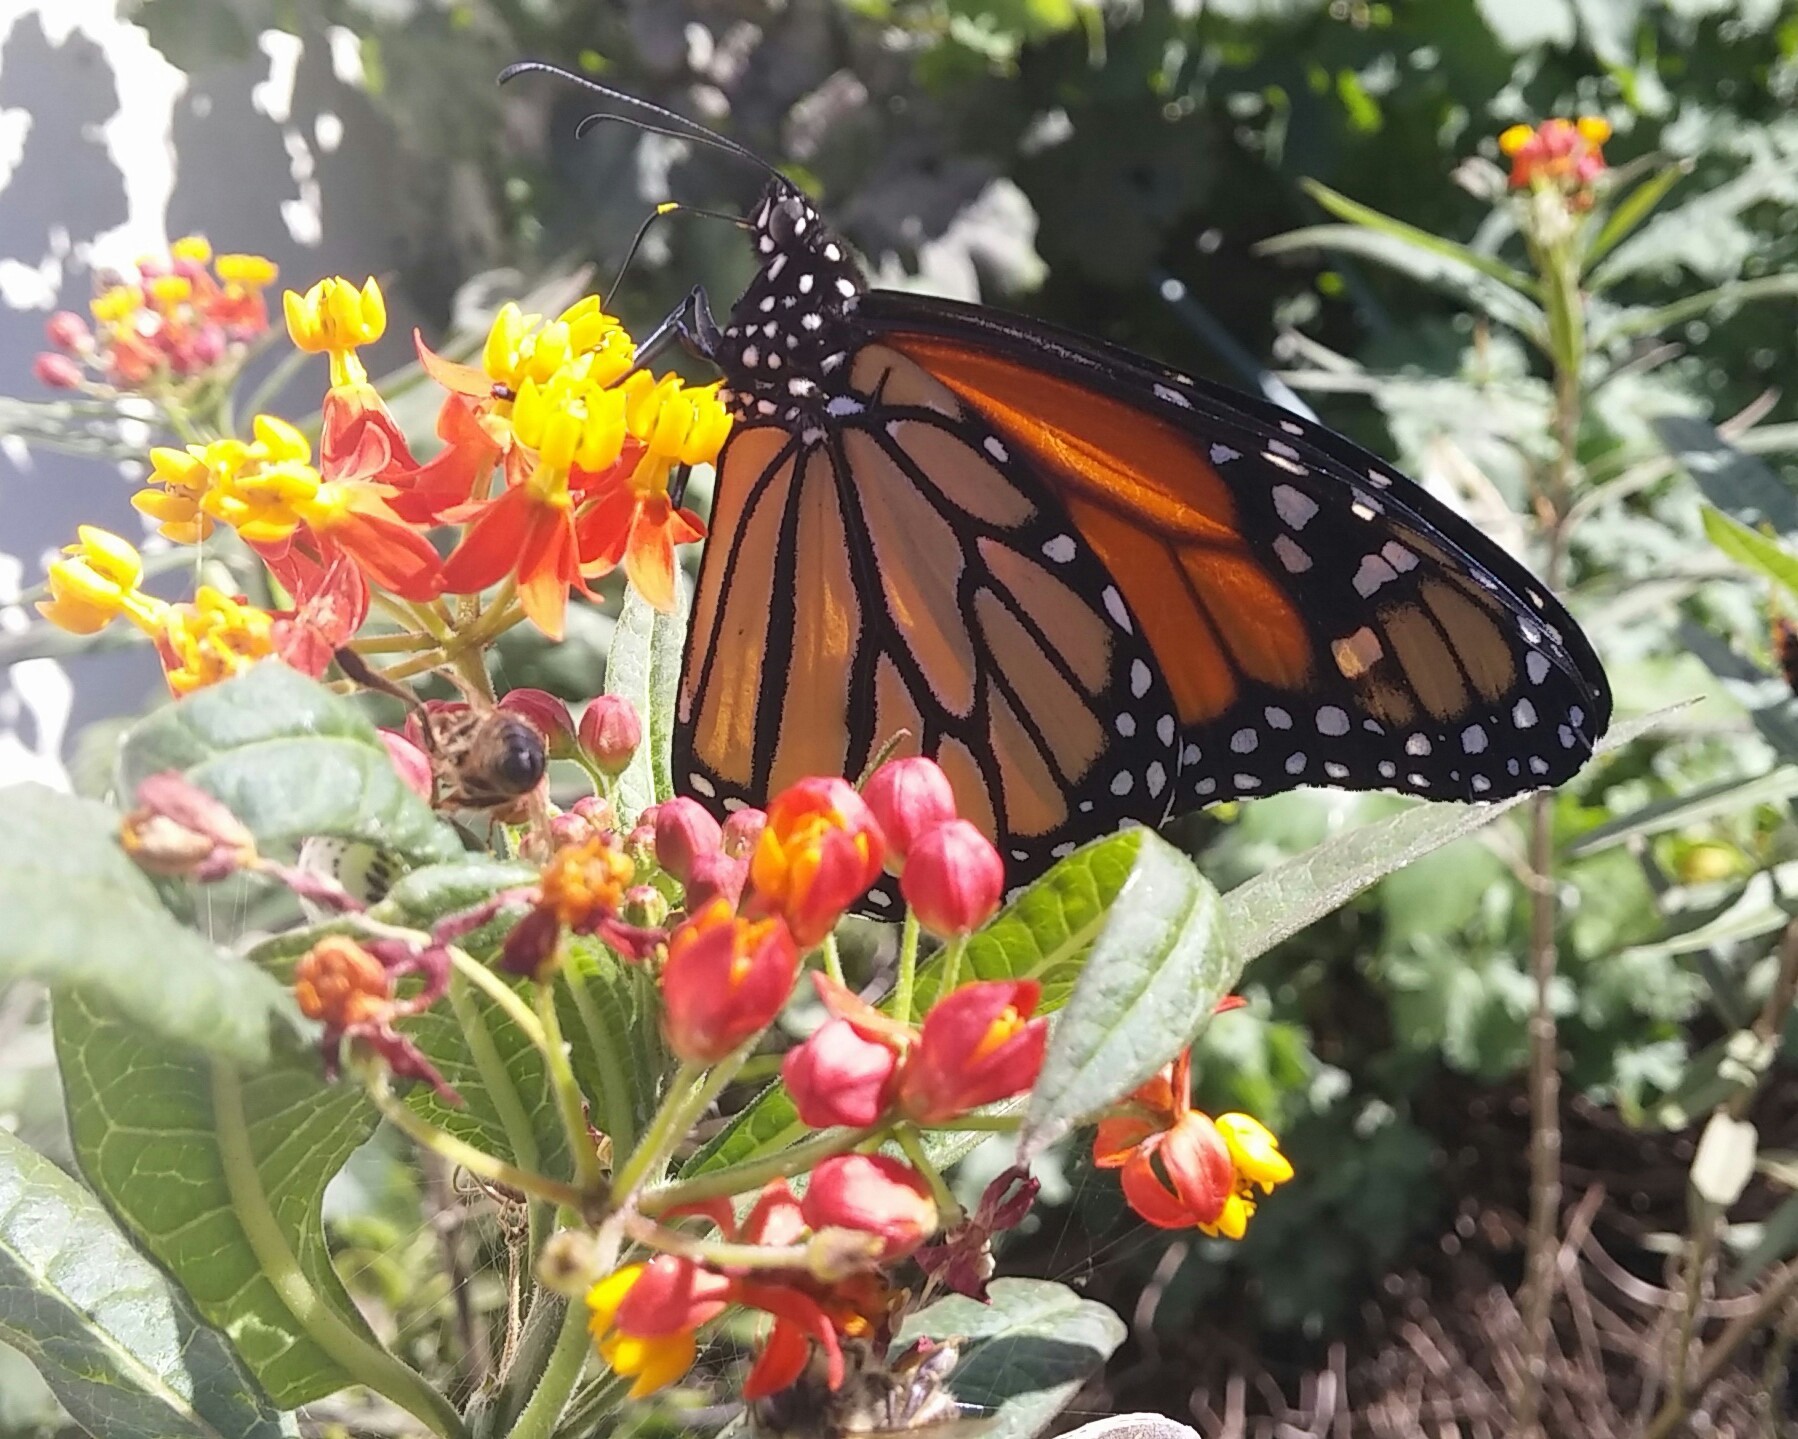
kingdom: Animalia
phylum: Arthropoda
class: Insecta
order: Lepidoptera
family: Nymphalidae
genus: Danaus
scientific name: Danaus plexippus
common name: Monarch
